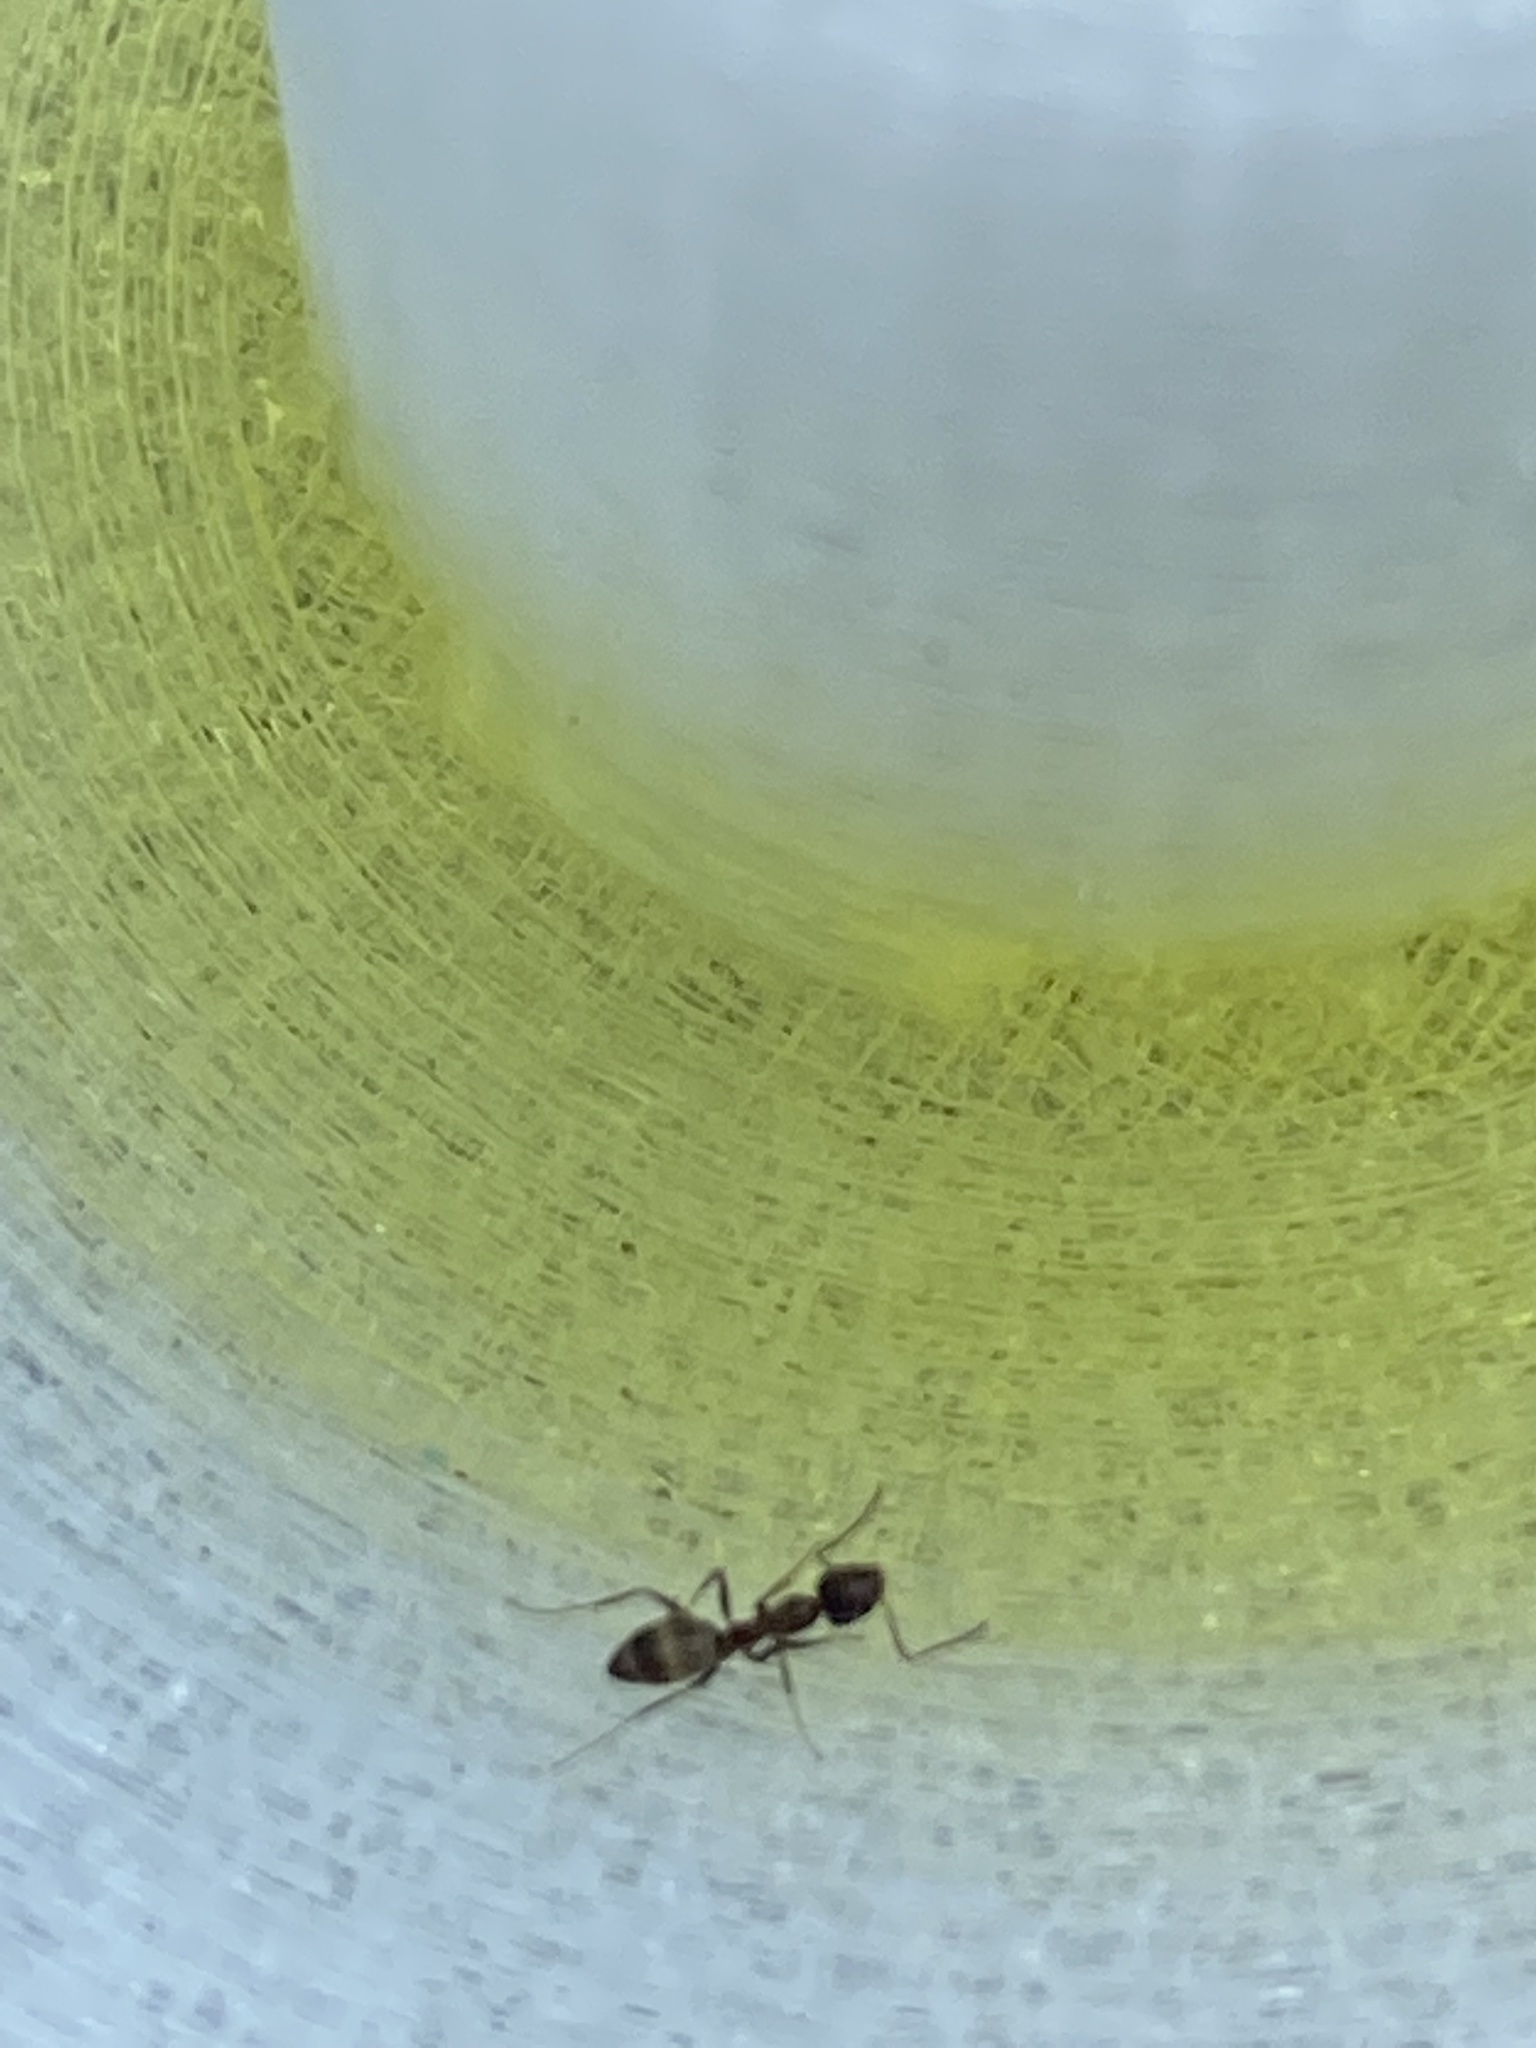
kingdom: Animalia
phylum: Arthropoda
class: Insecta
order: Hymenoptera
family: Formicidae
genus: Linepithema
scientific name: Linepithema humile
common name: Argentine ant
